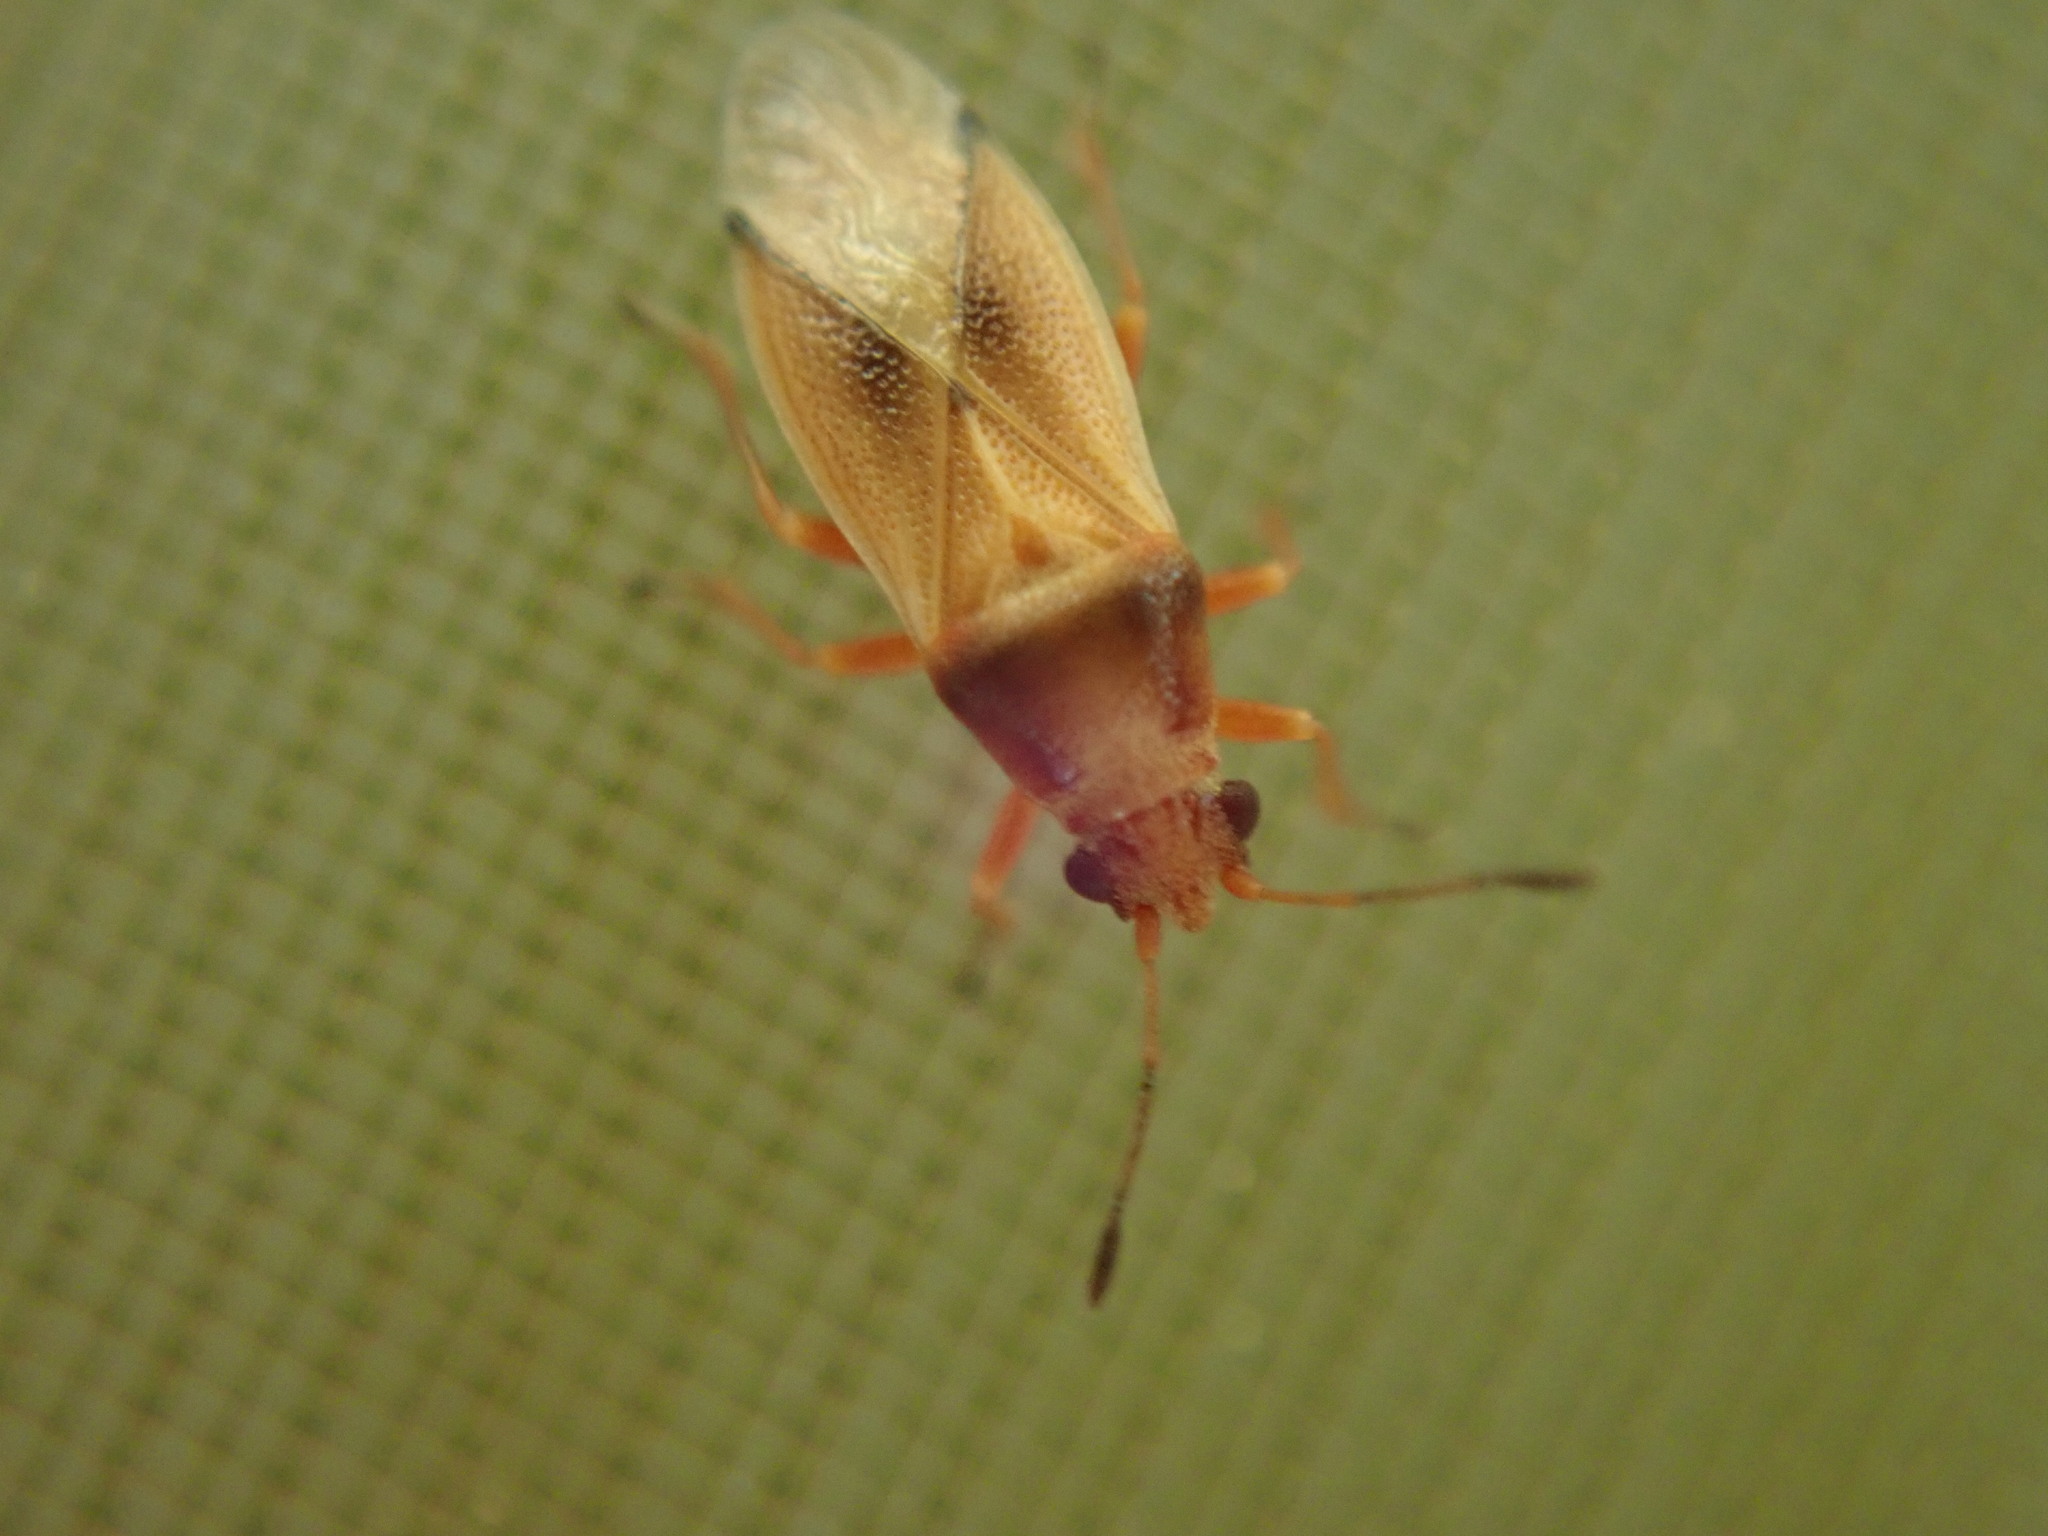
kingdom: Animalia
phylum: Arthropoda
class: Insecta
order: Hemiptera
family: Cymidae
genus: Cymus
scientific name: Cymus melanocephalus
